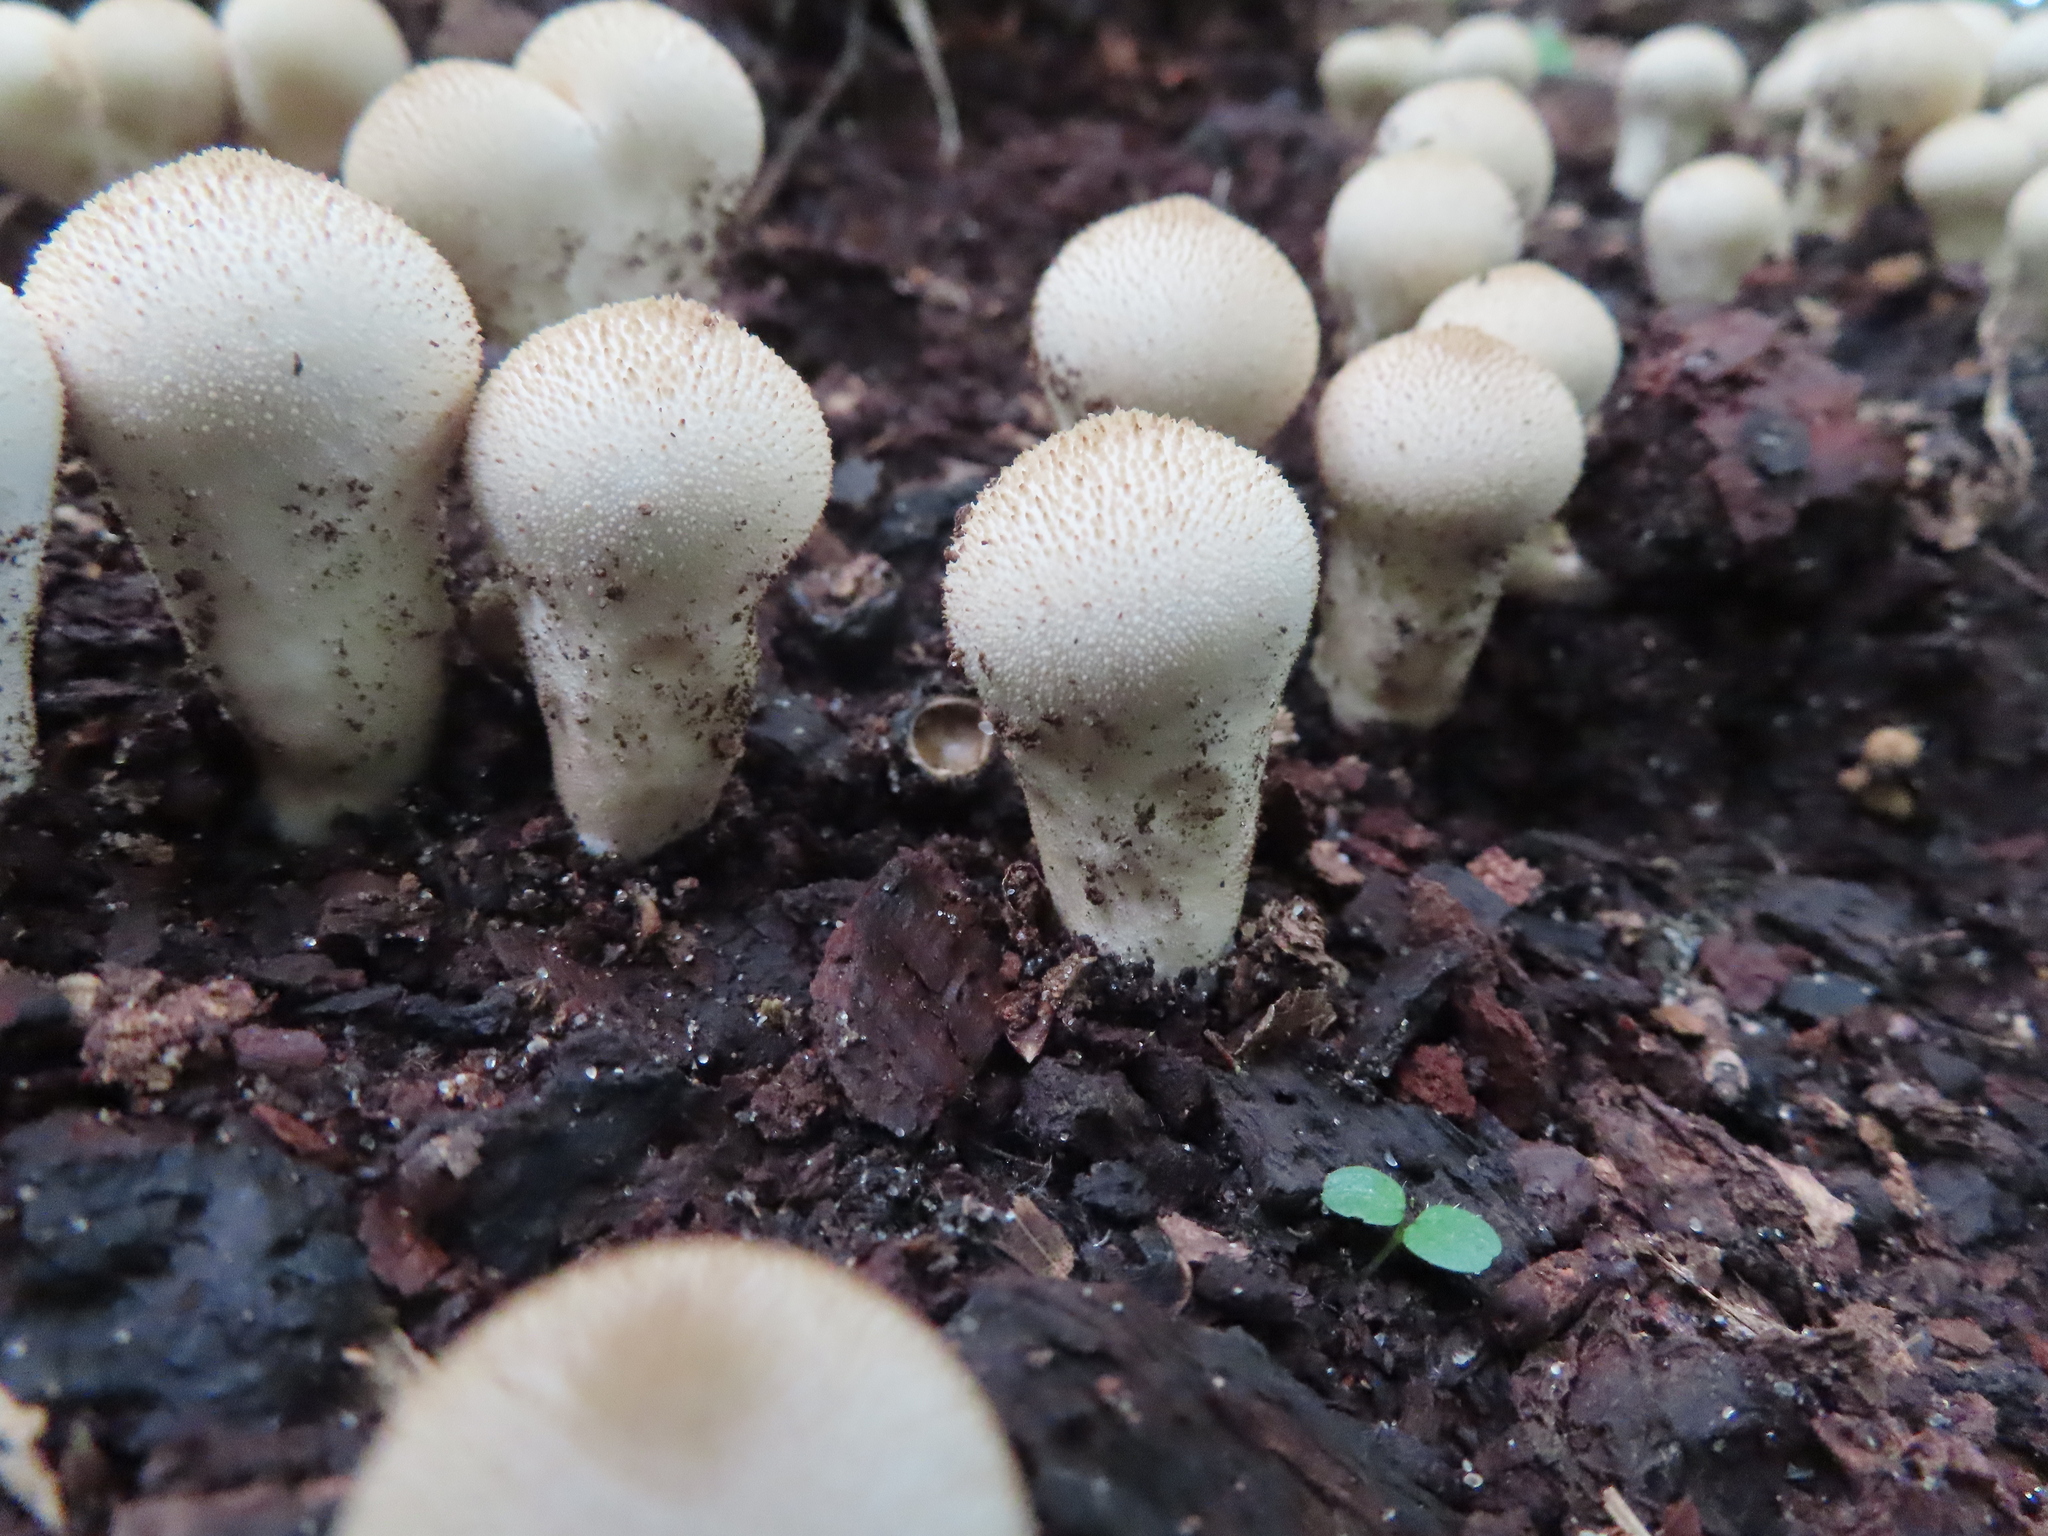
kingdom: Fungi
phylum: Basidiomycota
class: Agaricomycetes
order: Agaricales
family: Lycoperdaceae
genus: Lycoperdon
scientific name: Lycoperdon perlatum
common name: Common puffball
